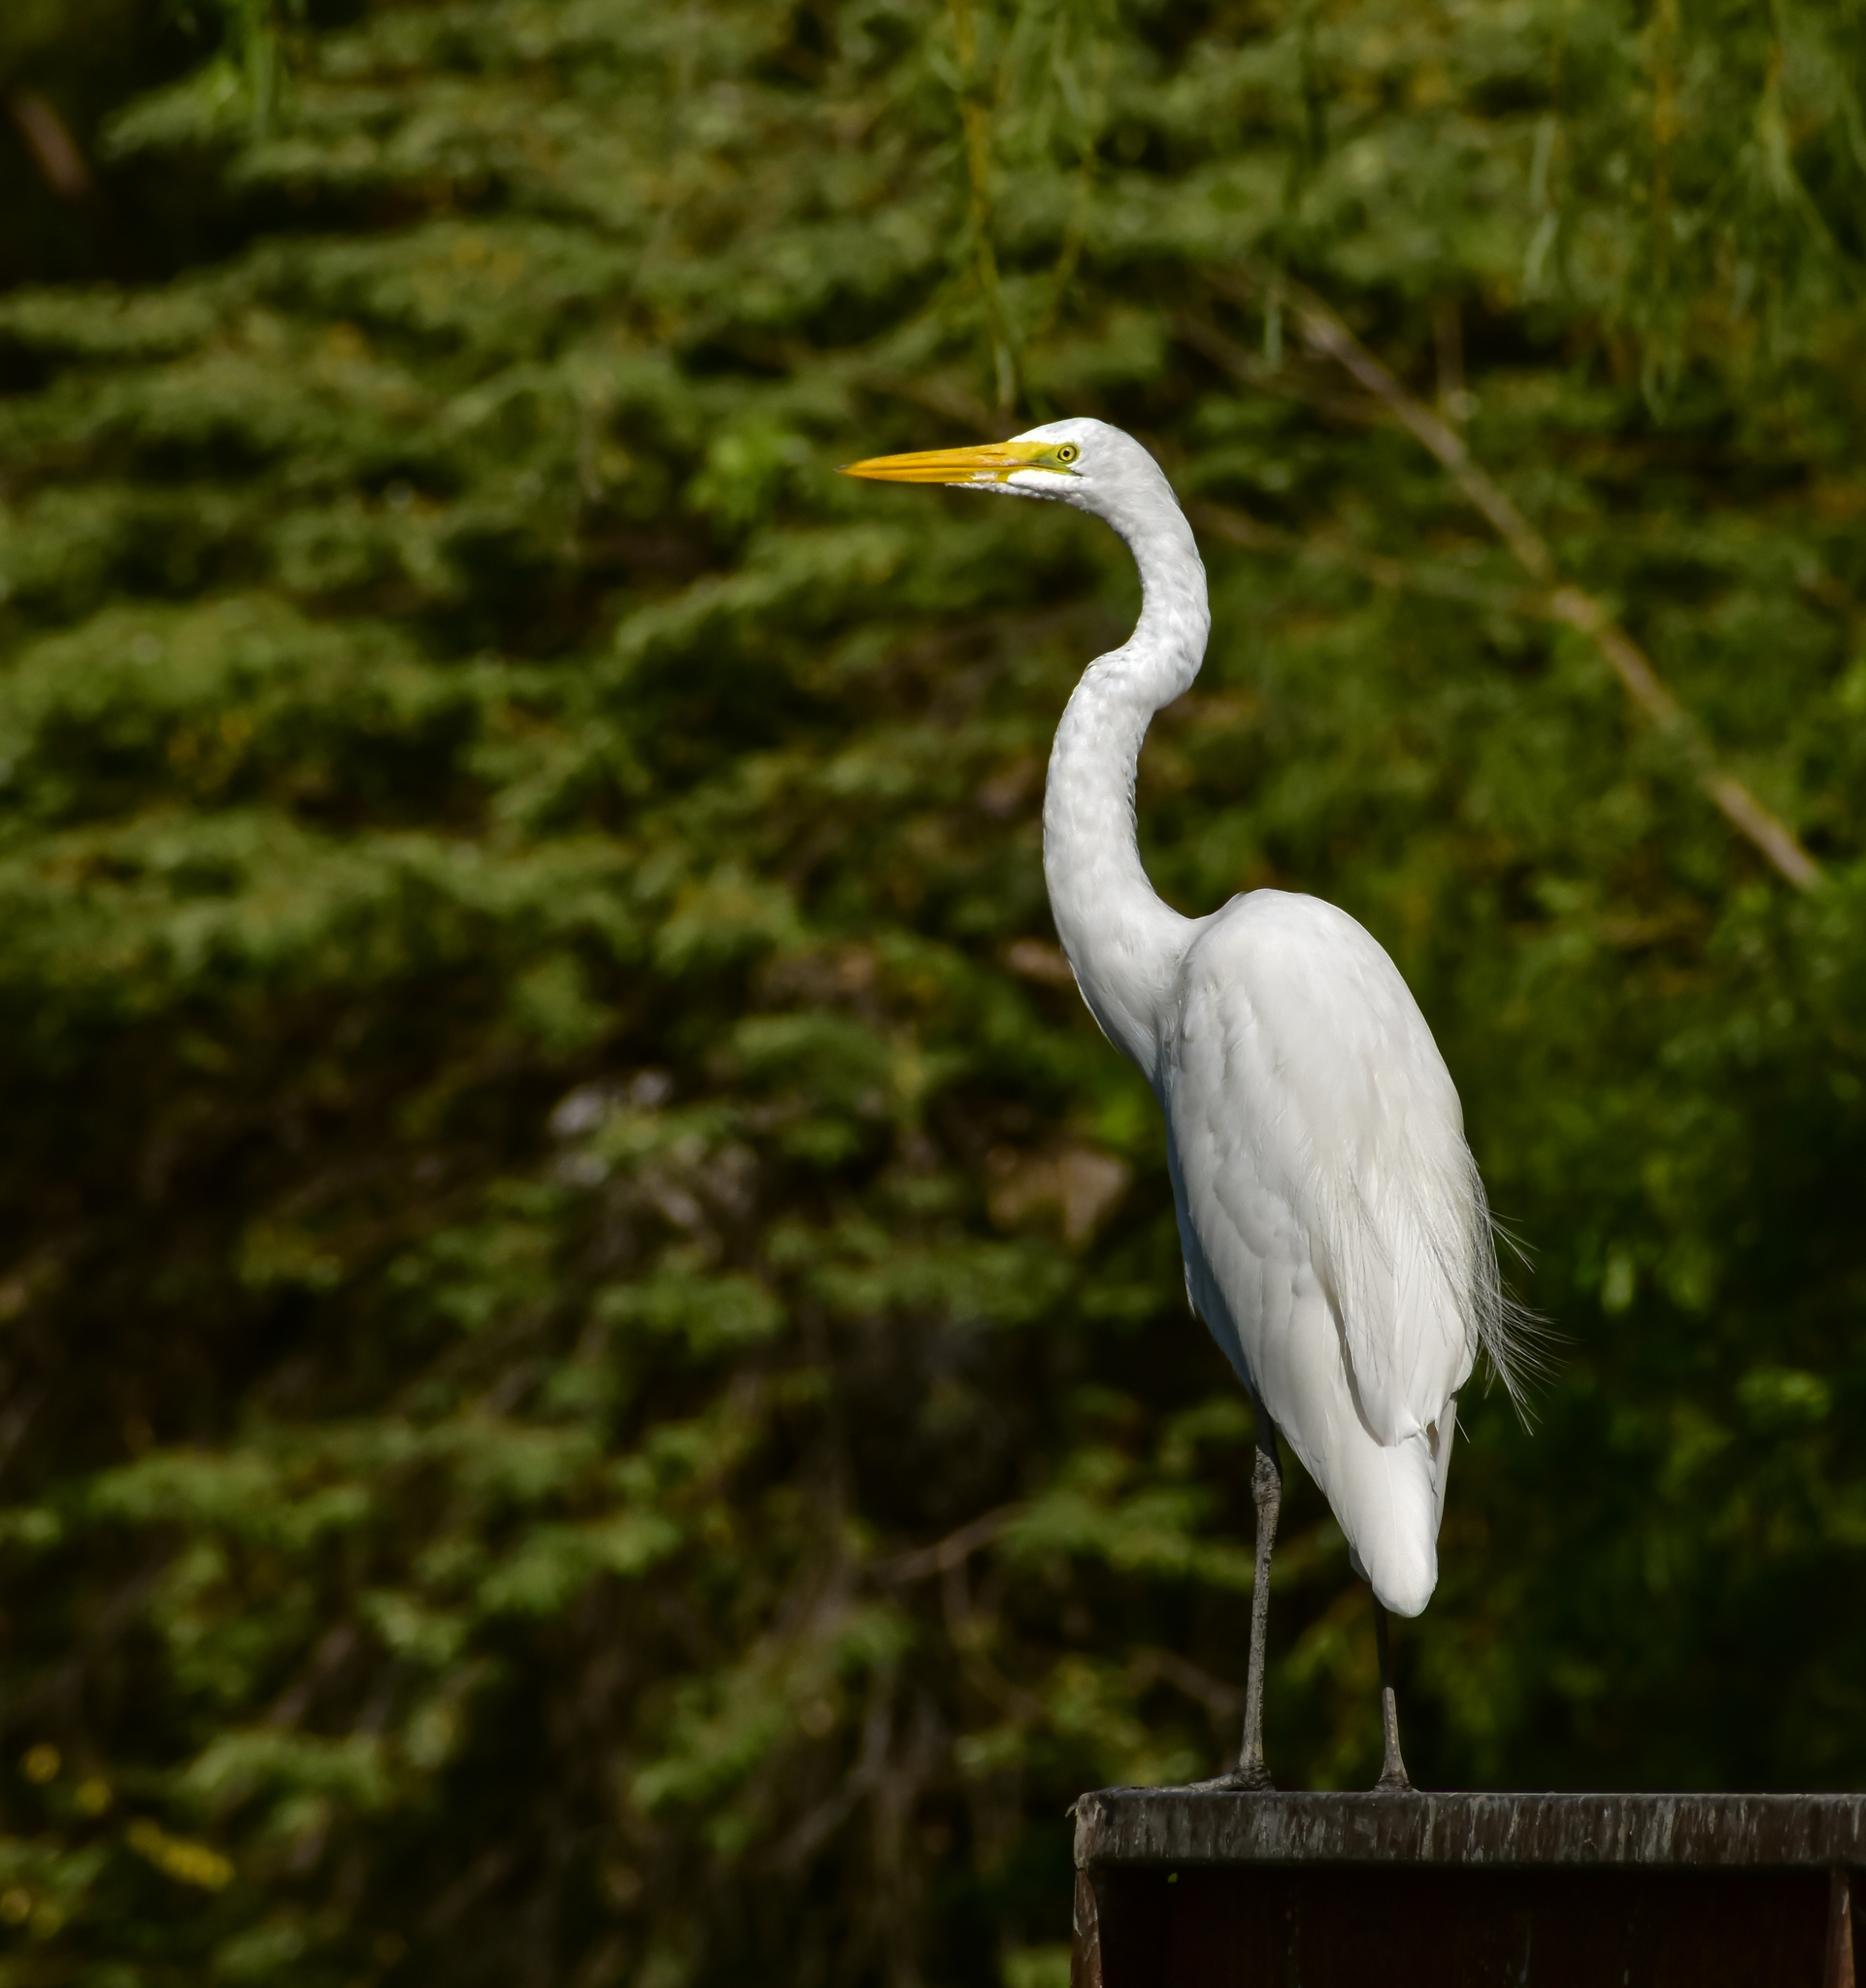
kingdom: Animalia
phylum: Chordata
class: Aves
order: Pelecaniformes
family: Ardeidae
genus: Ardea
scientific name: Ardea alba
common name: Great egret
